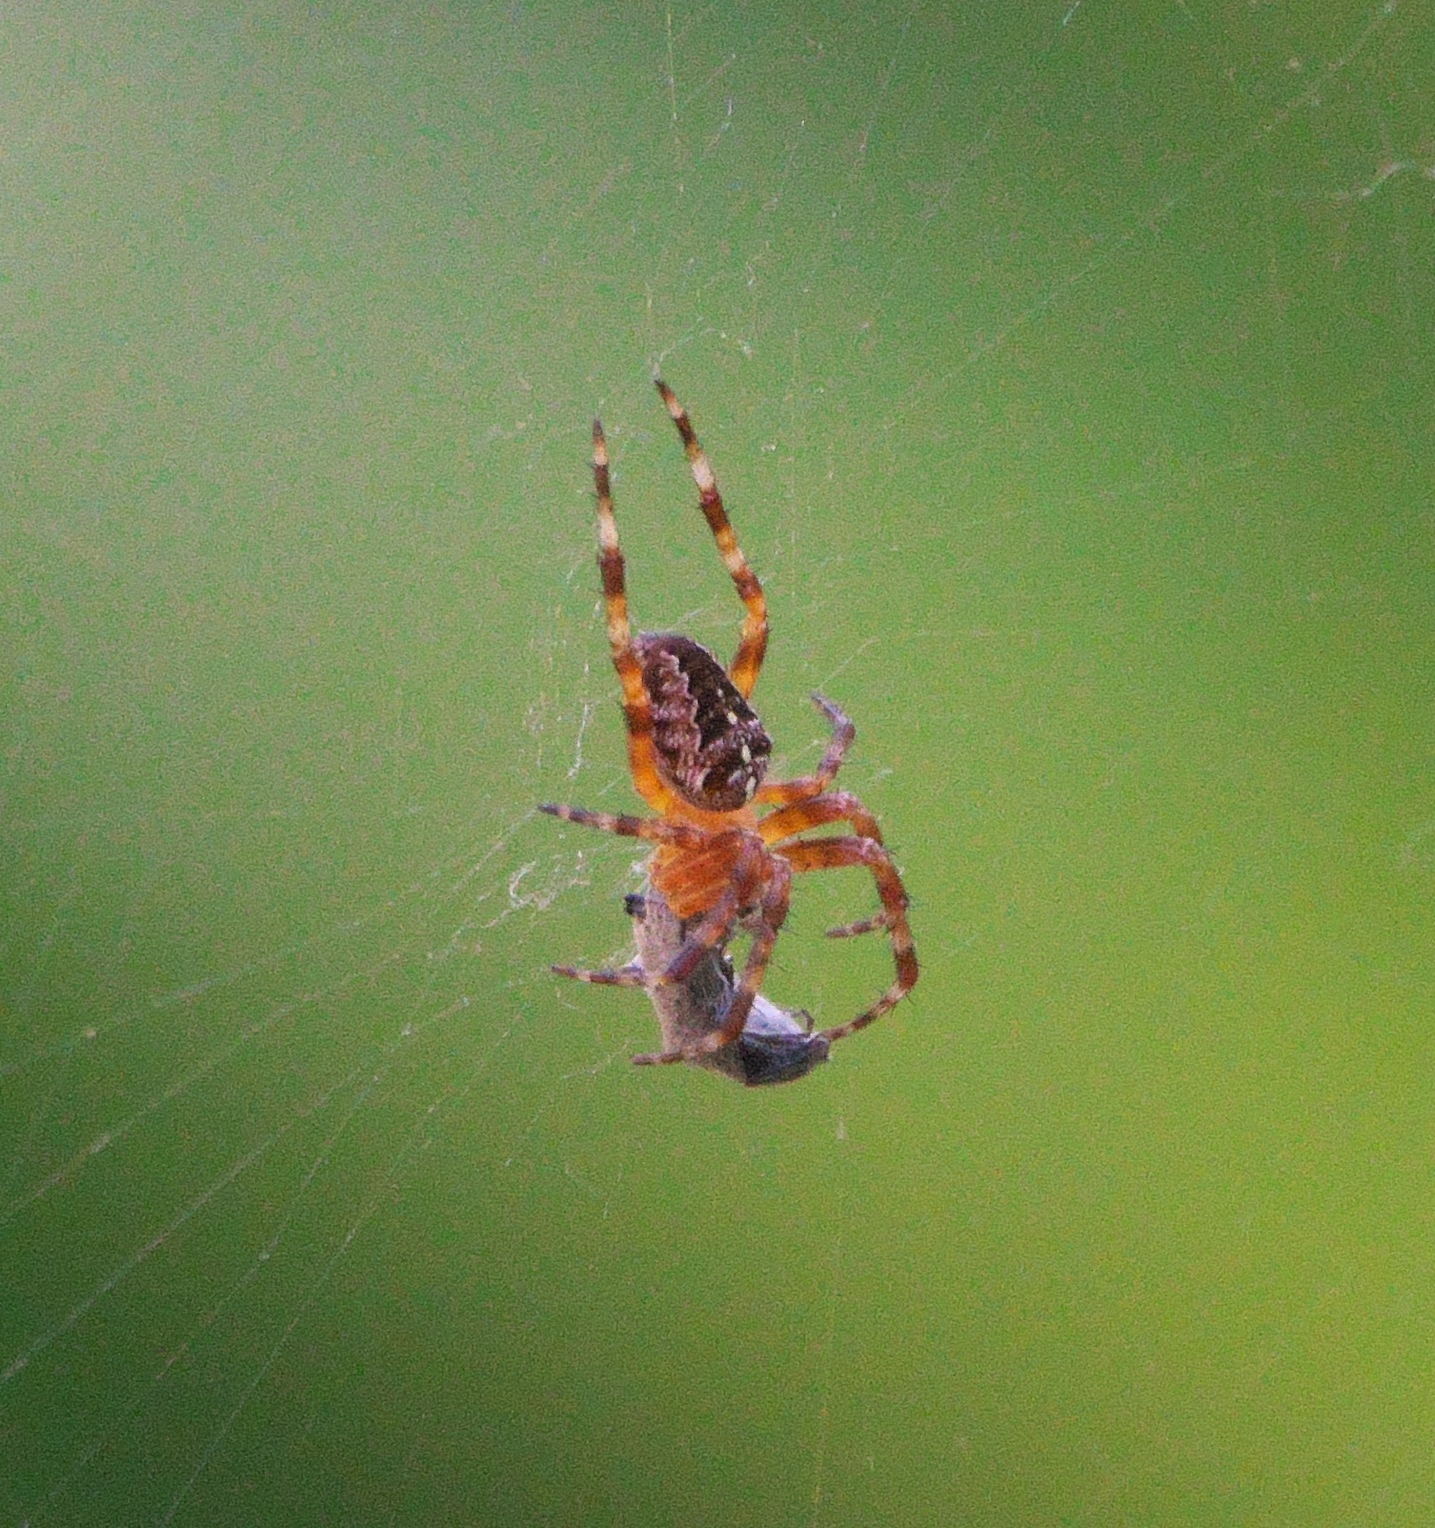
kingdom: Animalia
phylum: Arthropoda
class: Arachnida
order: Araneae
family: Araneidae
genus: Araneus
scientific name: Araneus diadematus
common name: Cross orbweaver
